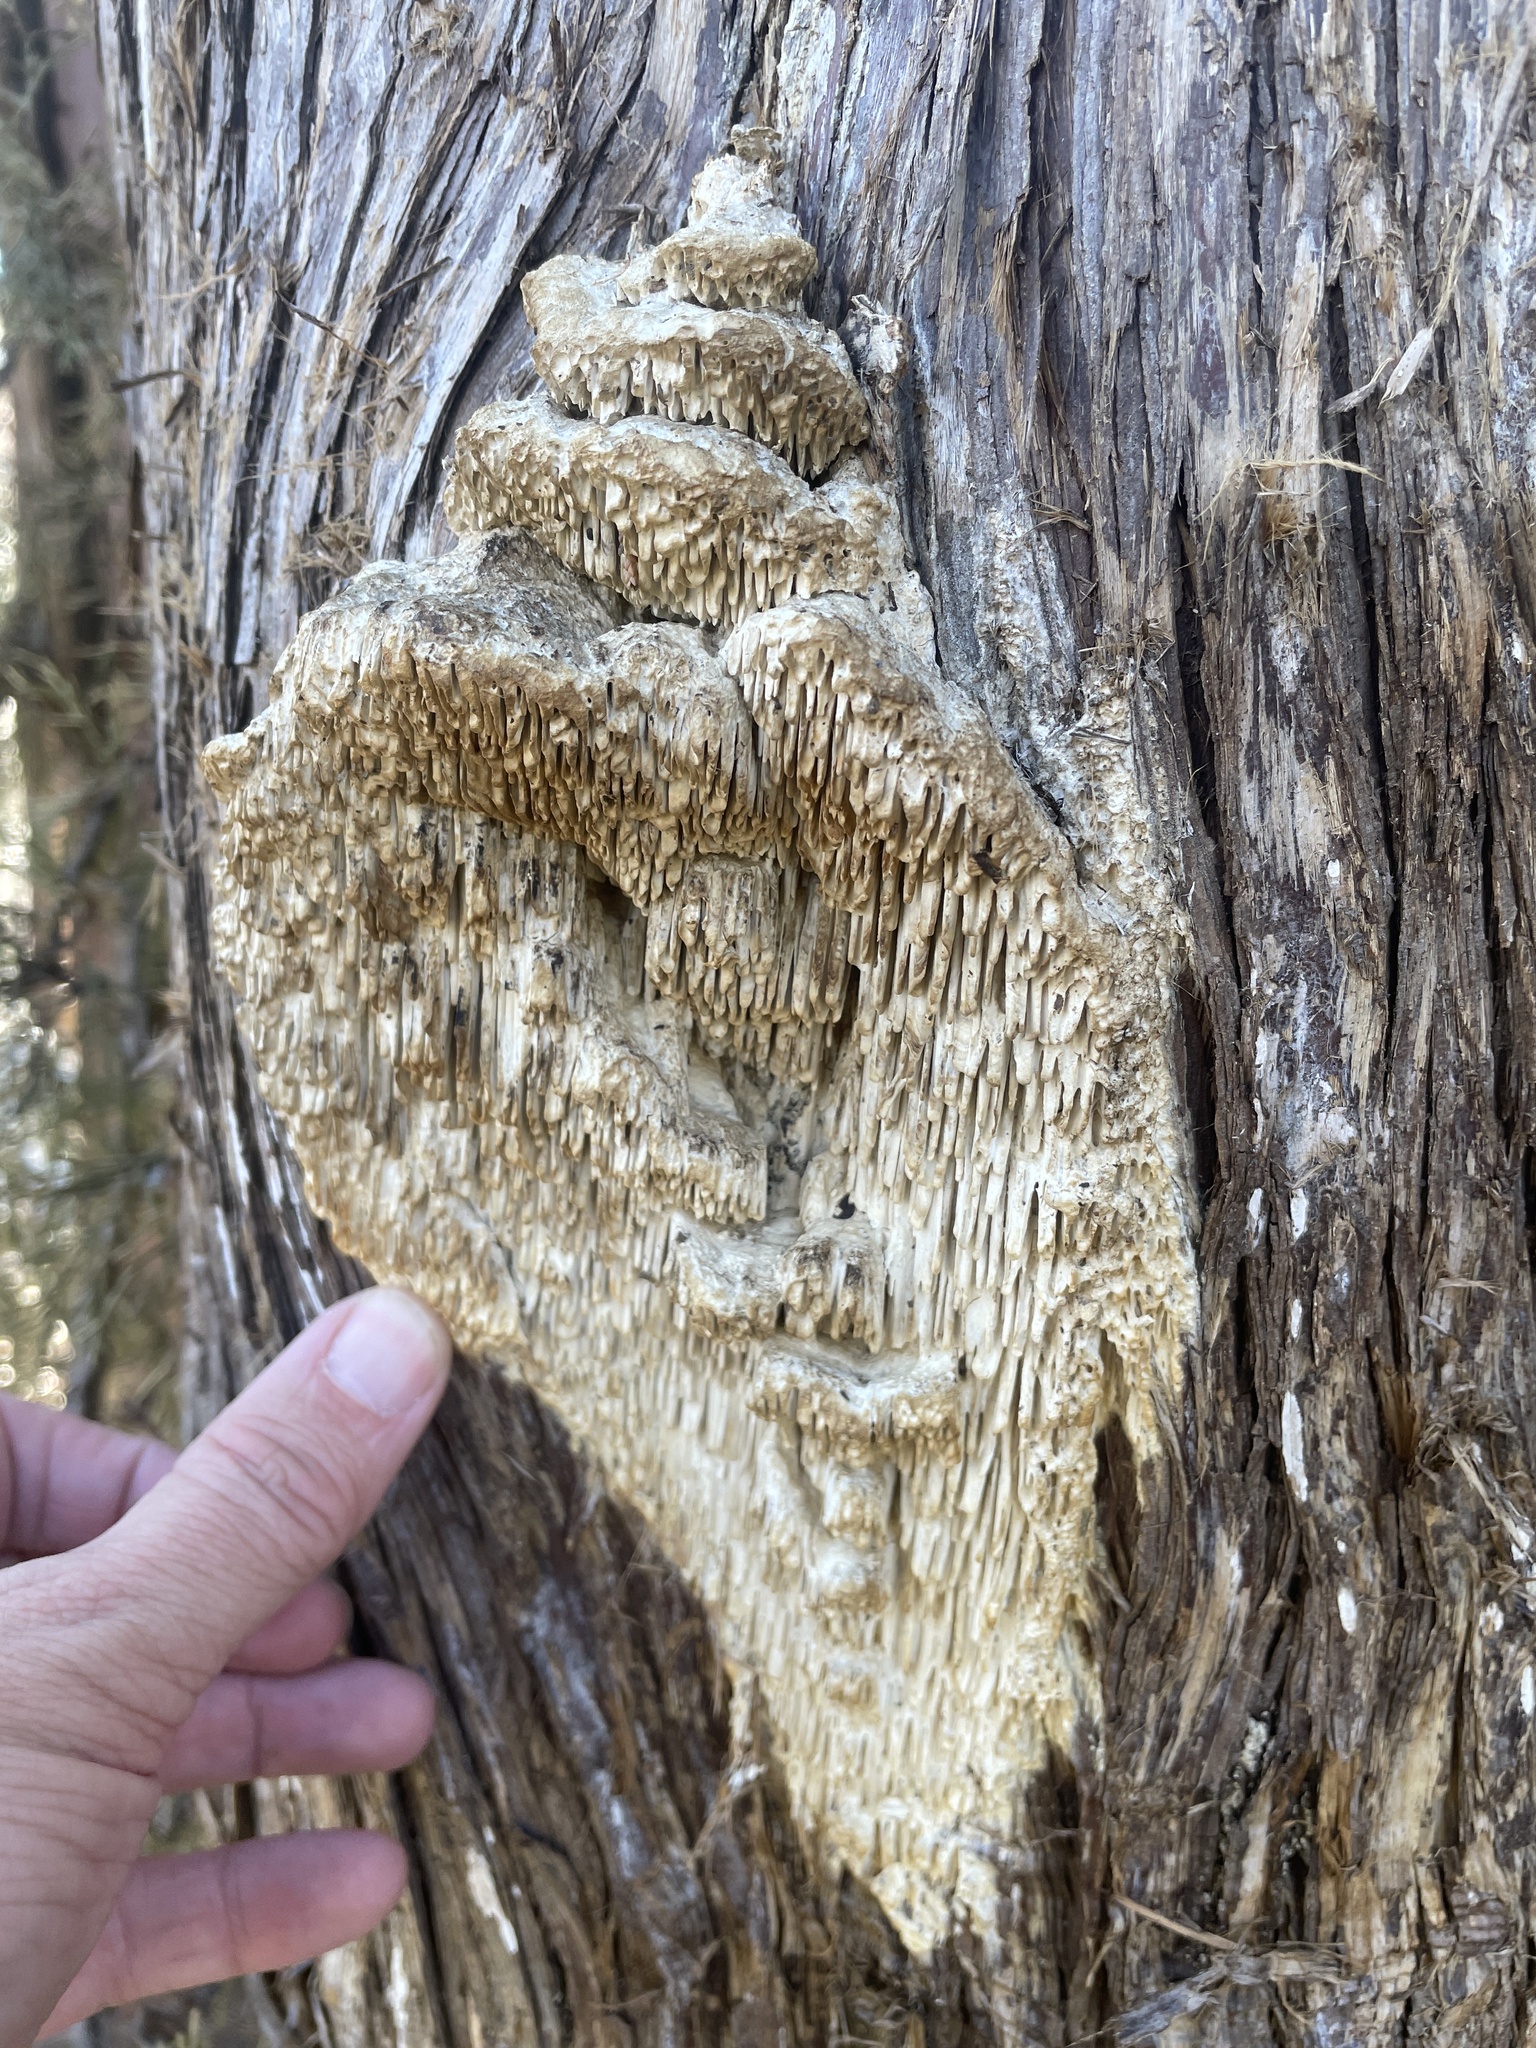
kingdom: Fungi
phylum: Basidiomycota
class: Agaricomycetes
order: Polyporales
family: Fomitopsidaceae
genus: Fomitopsis
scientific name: Fomitopsis
